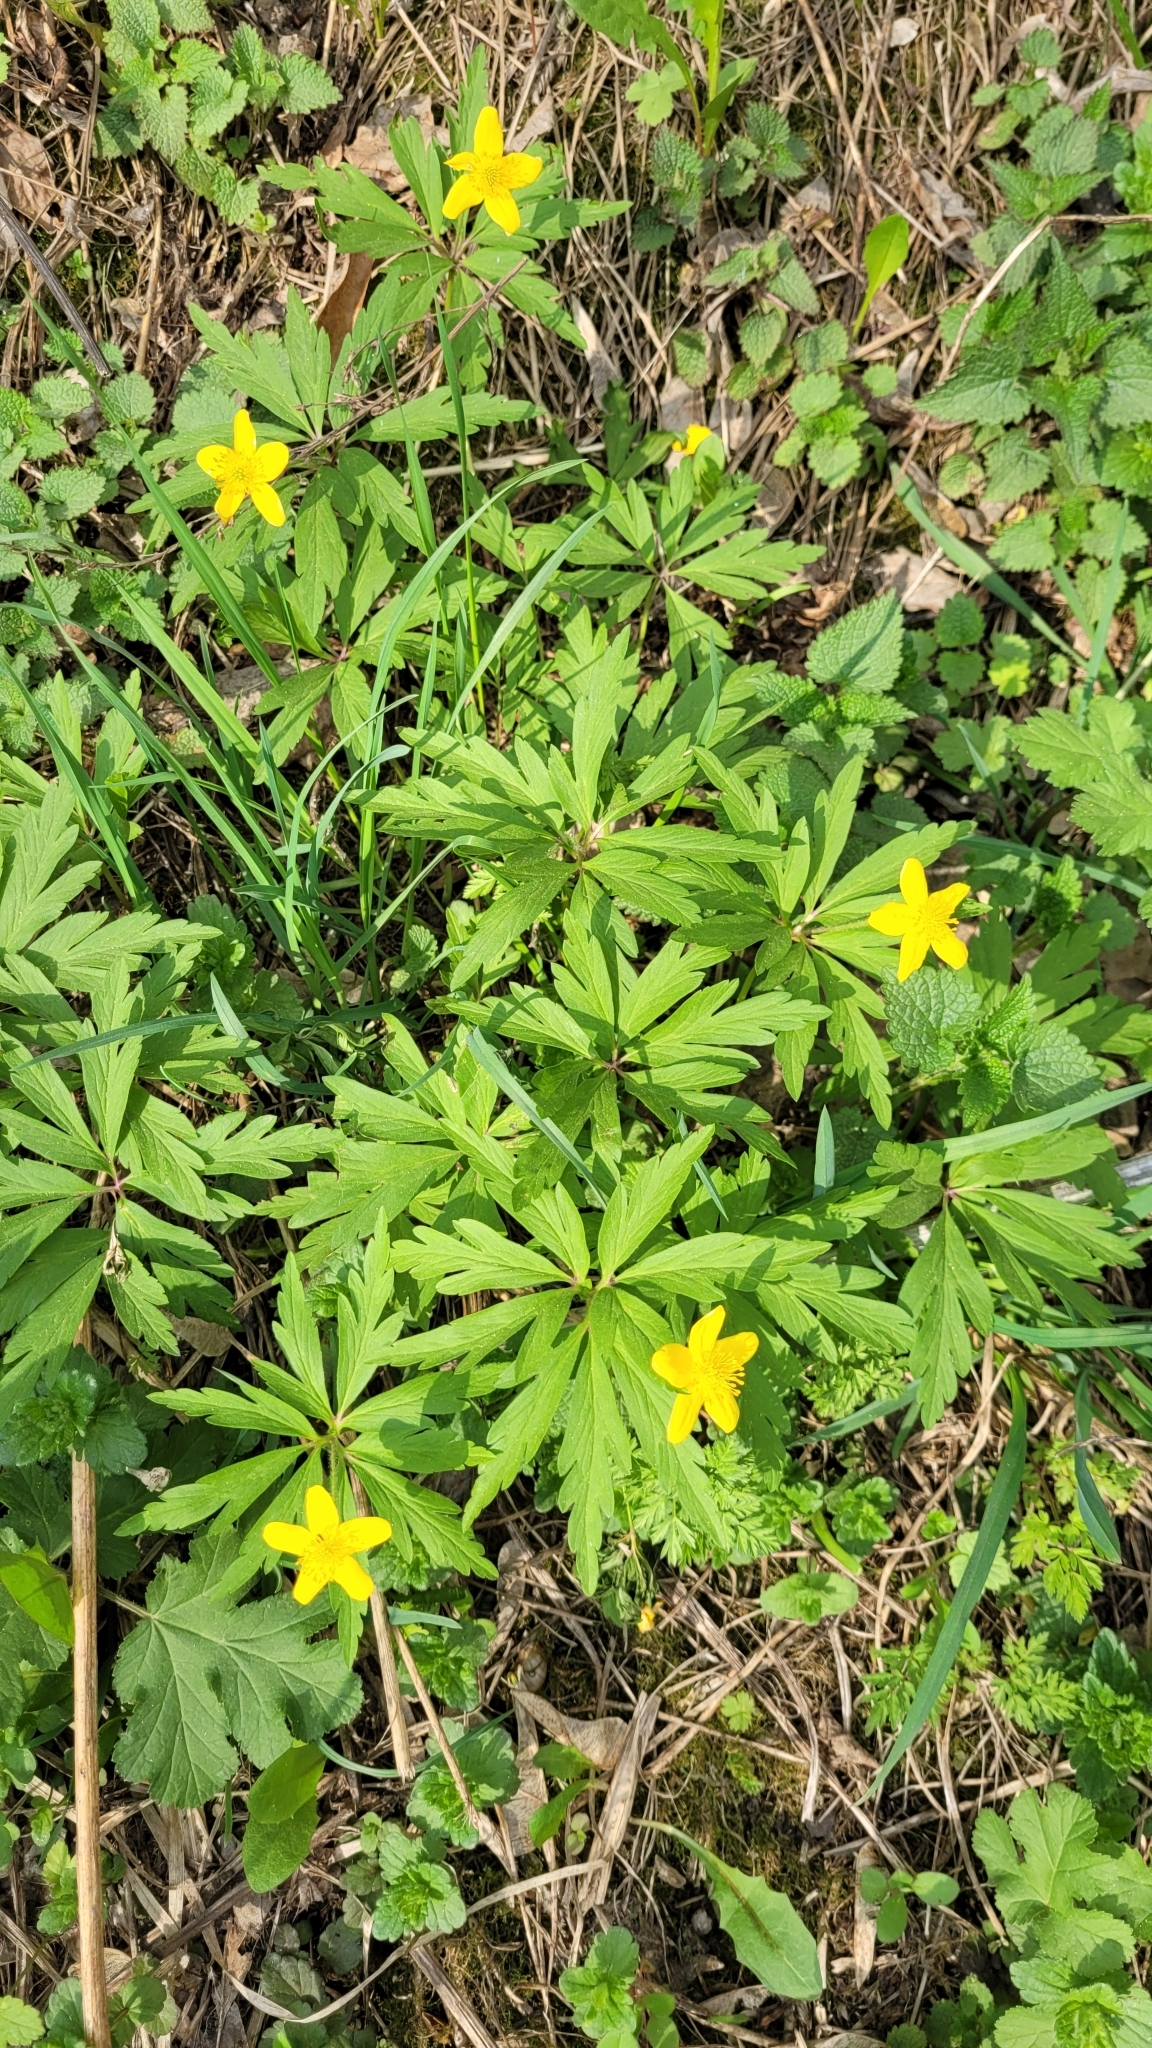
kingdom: Plantae
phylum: Tracheophyta
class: Magnoliopsida
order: Ranunculales
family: Ranunculaceae
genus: Anemone
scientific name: Anemone ranunculoides
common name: Yellow anemone
